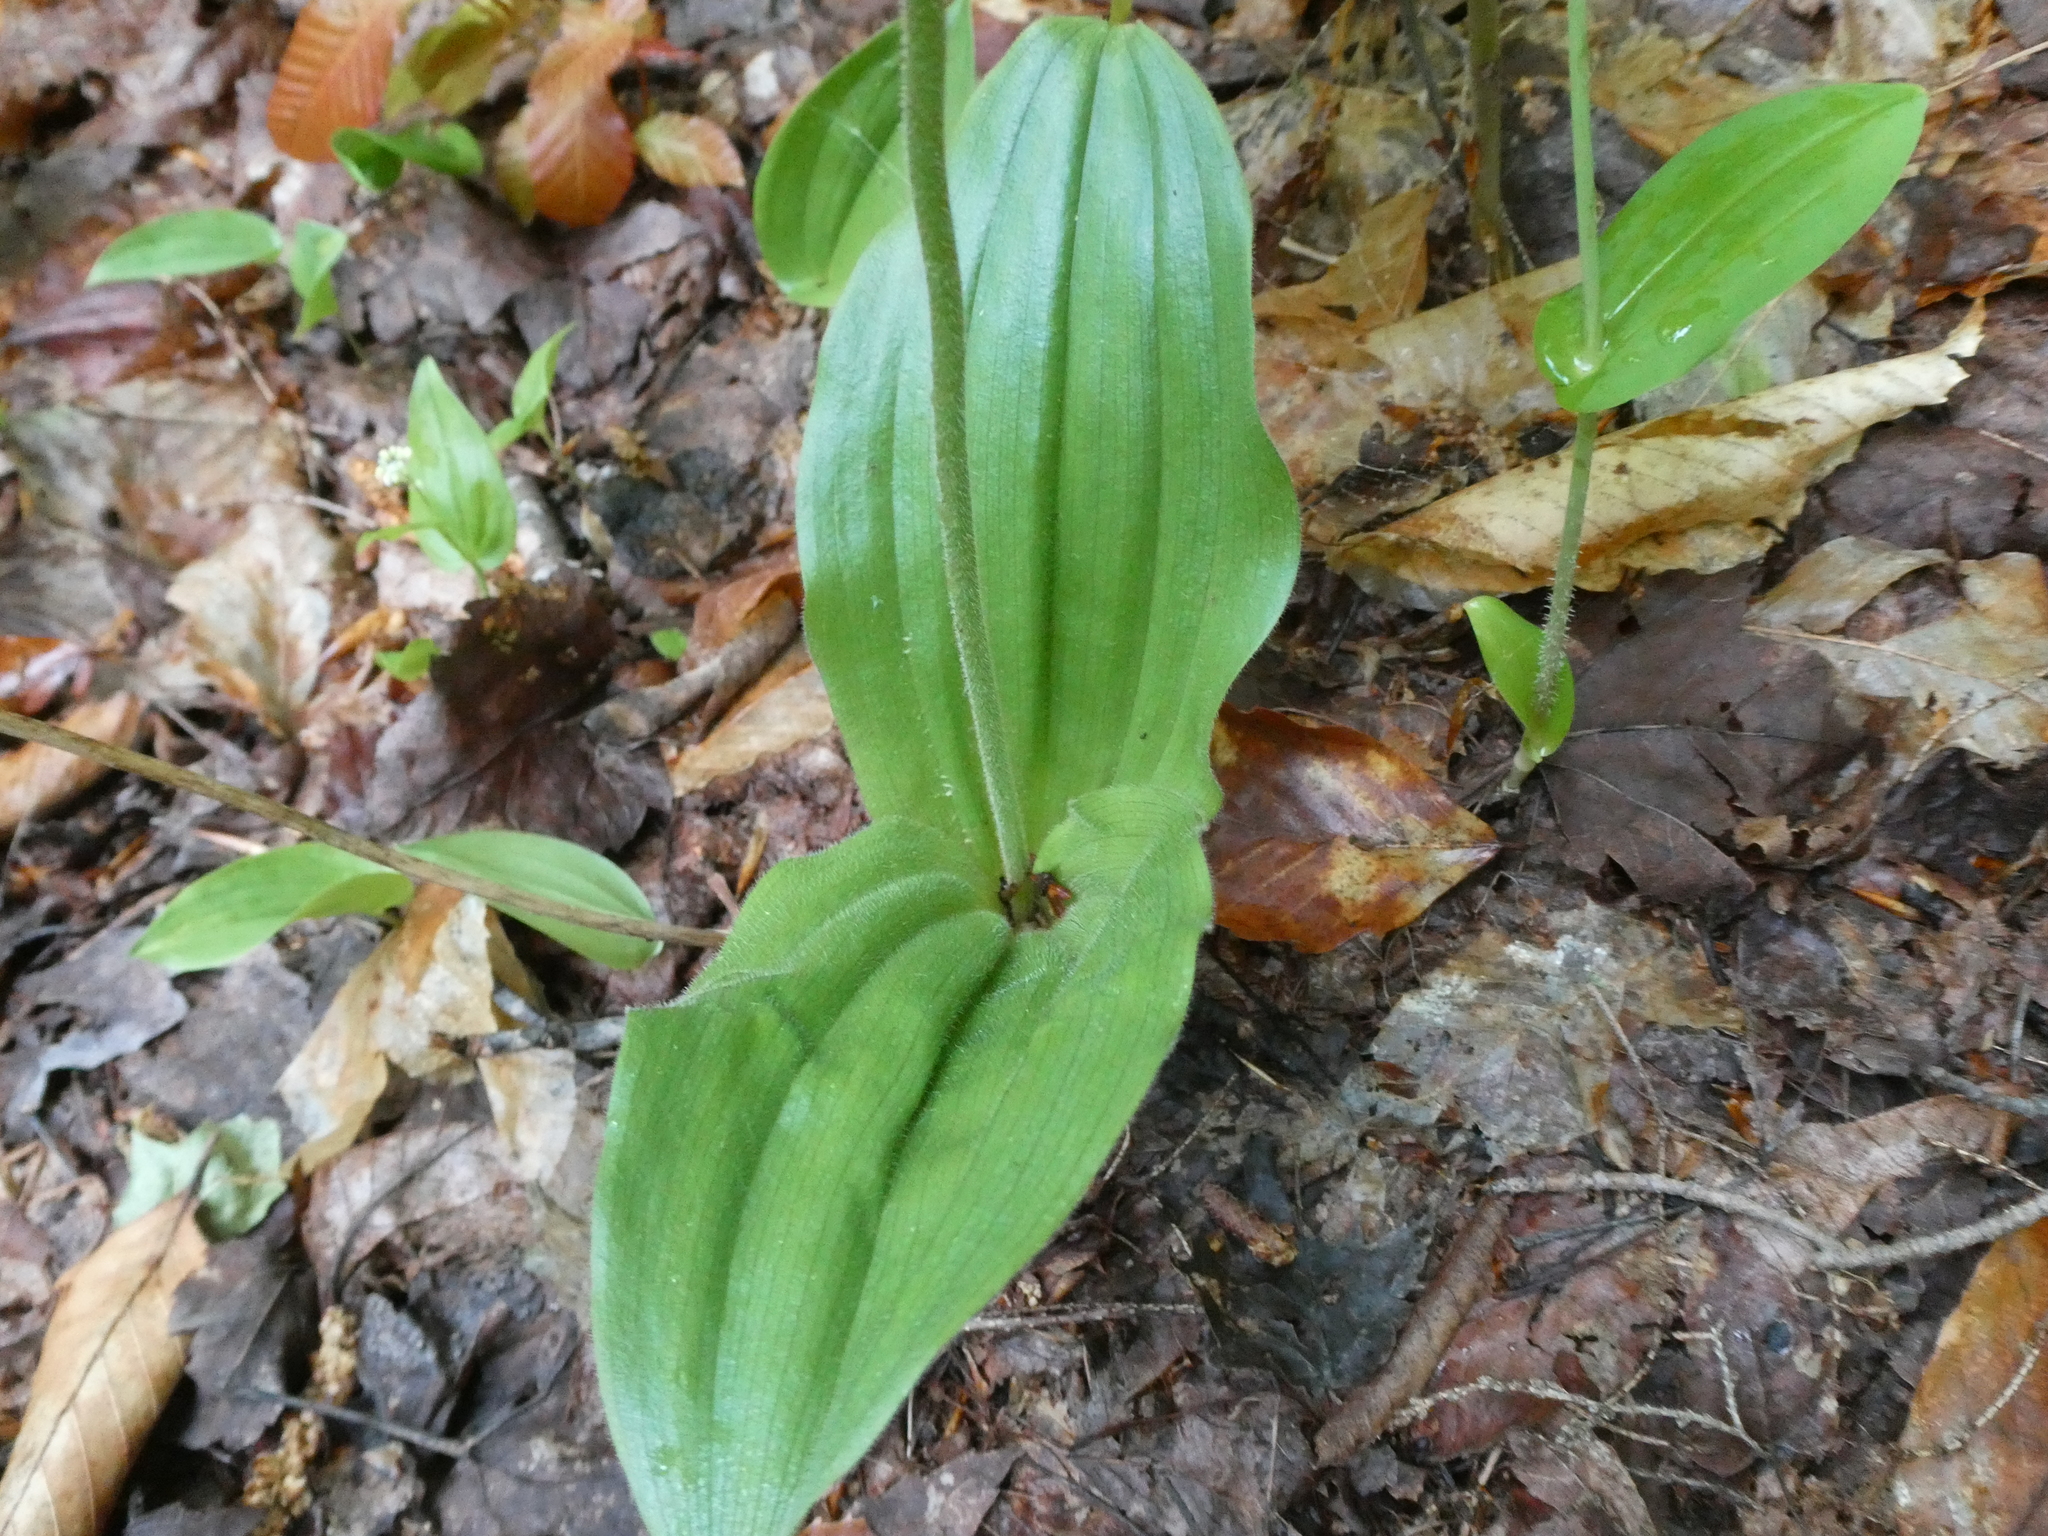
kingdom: Plantae
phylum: Tracheophyta
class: Liliopsida
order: Asparagales
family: Orchidaceae
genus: Cypripedium
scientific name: Cypripedium acaule
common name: Pink lady's-slipper
